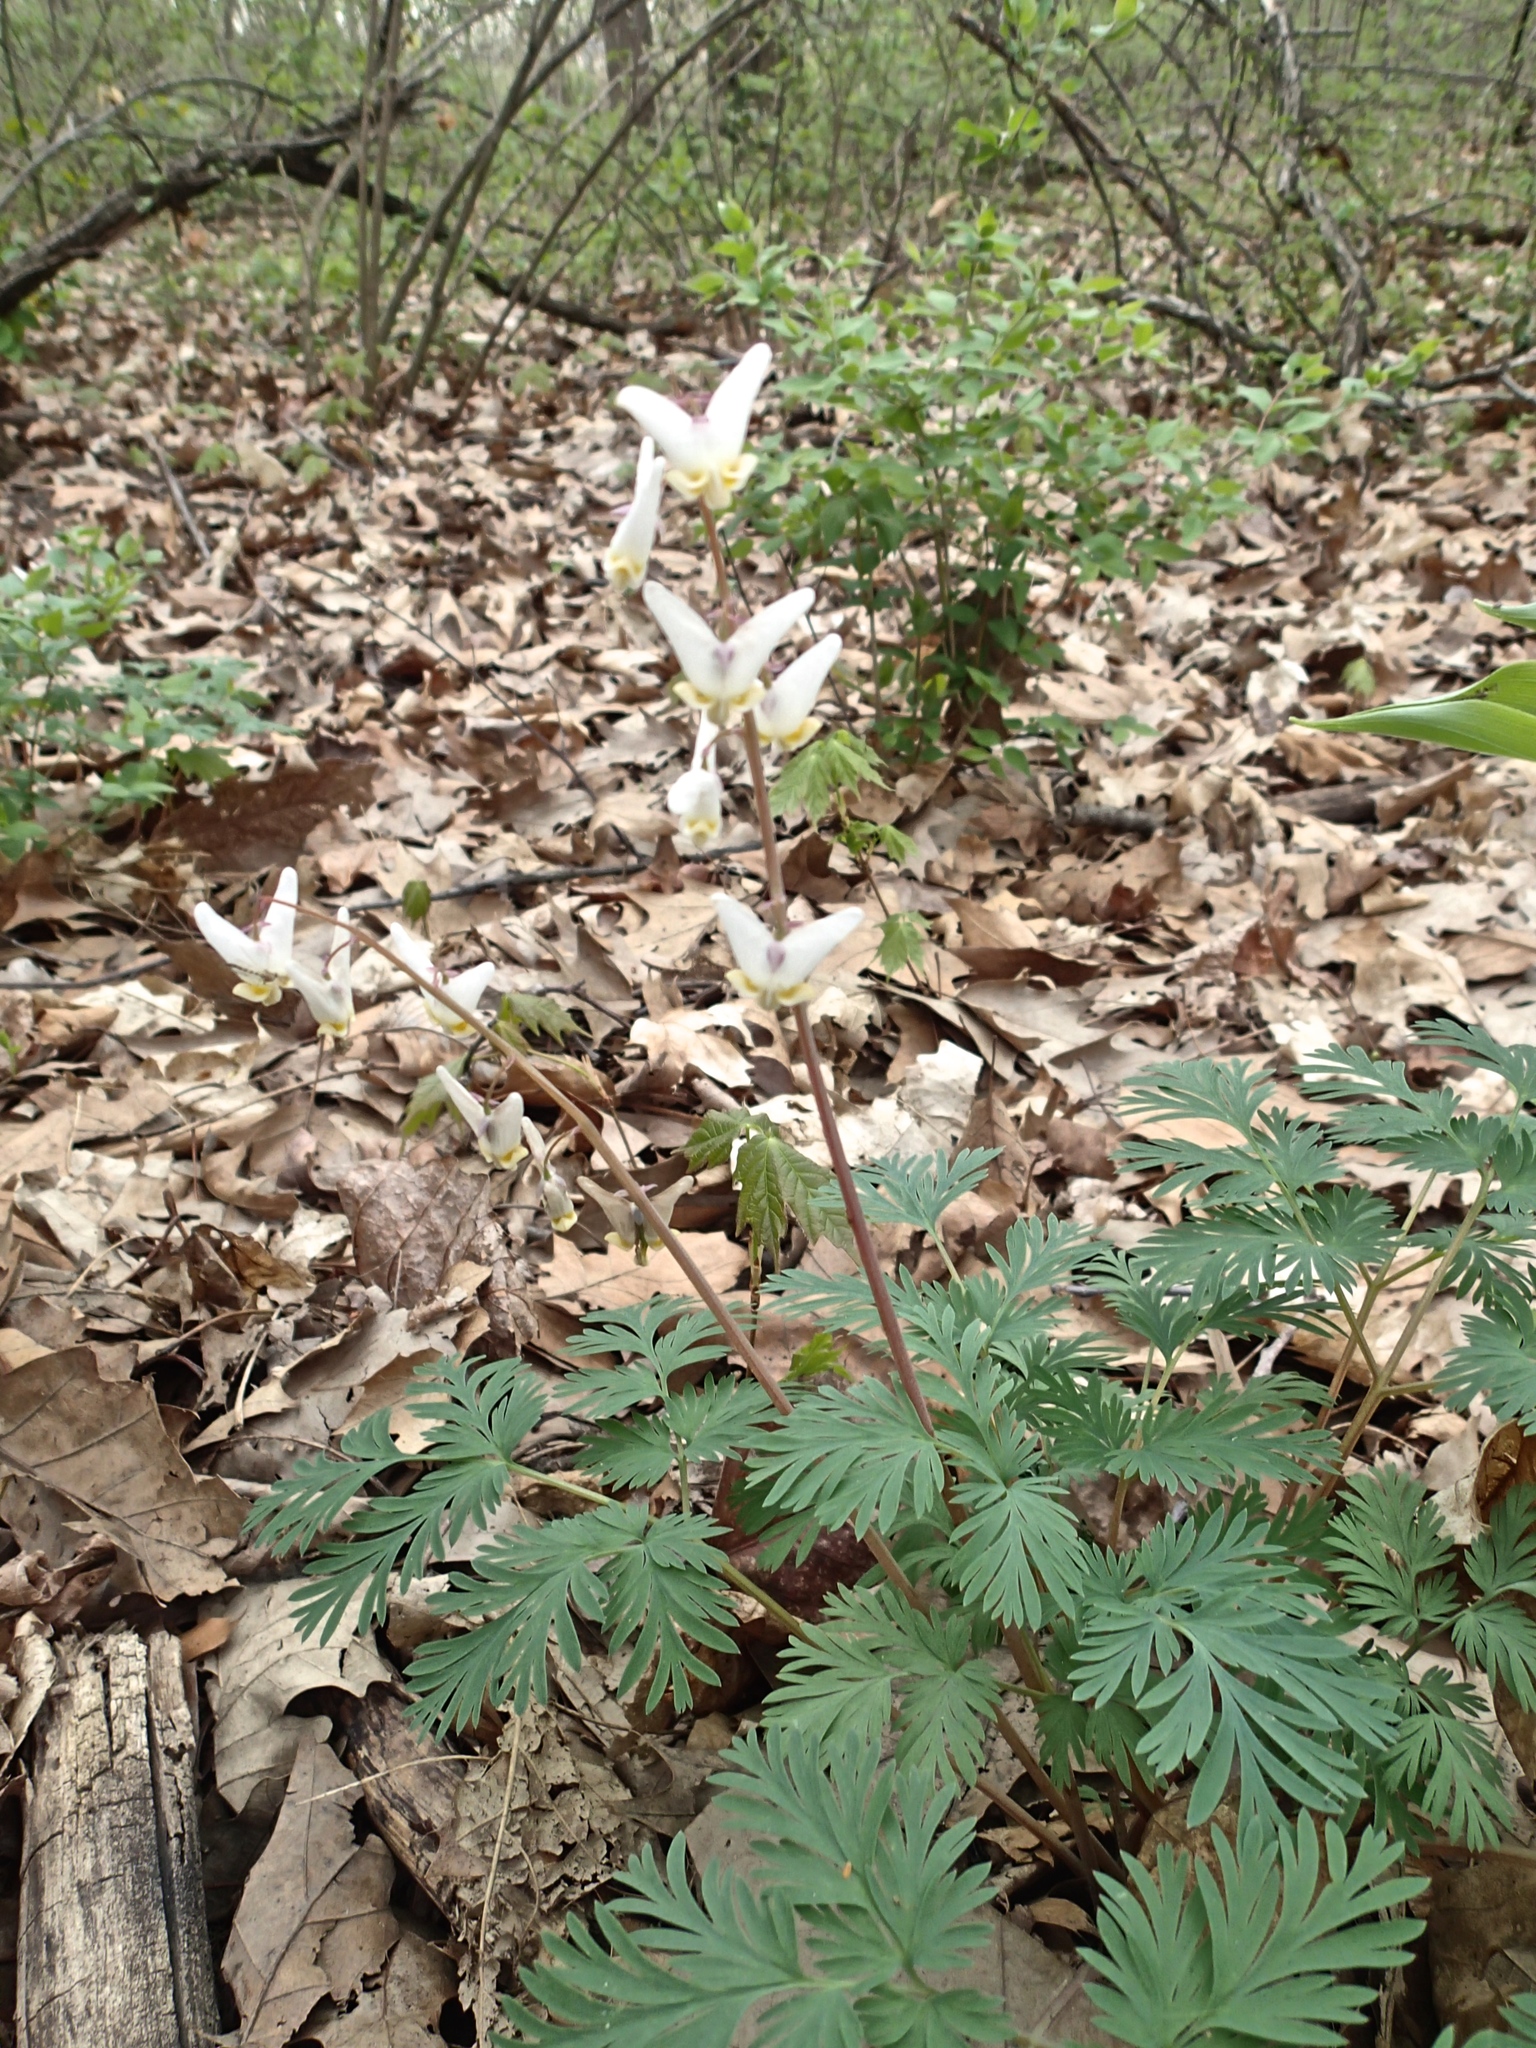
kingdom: Plantae
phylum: Tracheophyta
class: Magnoliopsida
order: Ranunculales
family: Papaveraceae
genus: Dicentra
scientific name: Dicentra cucullaria
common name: Dutchman's breeches
